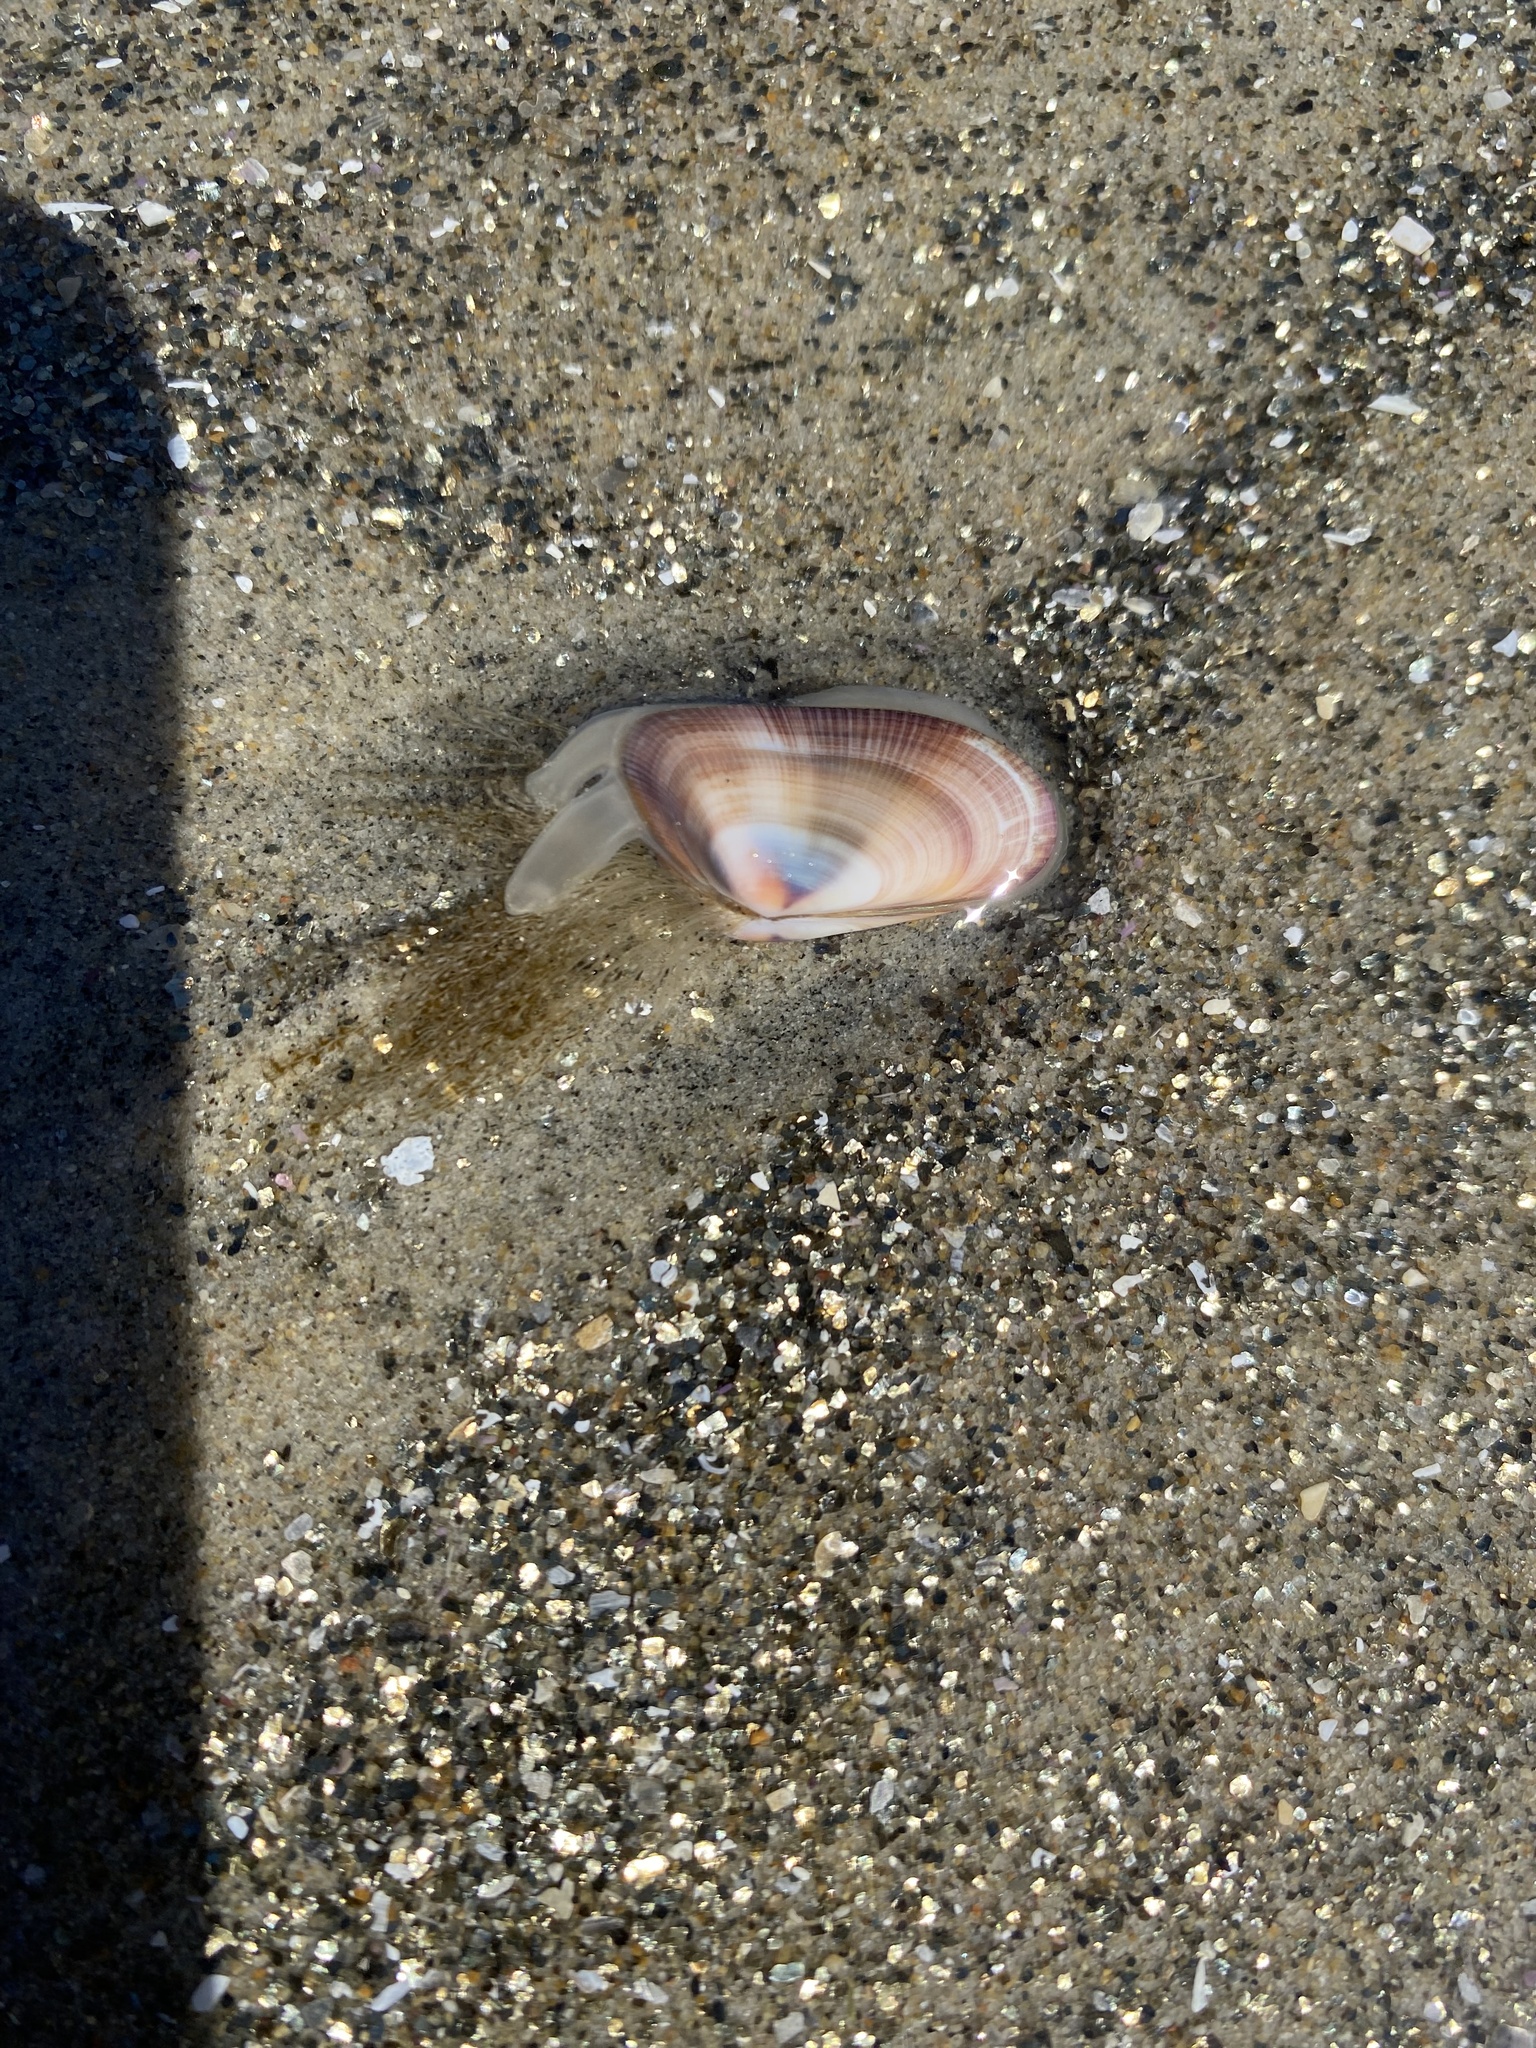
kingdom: Animalia
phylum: Cnidaria
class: Hydrozoa
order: Leptothecata
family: Lovenellidae
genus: Eucheilota
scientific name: Eucheilota bakeri
